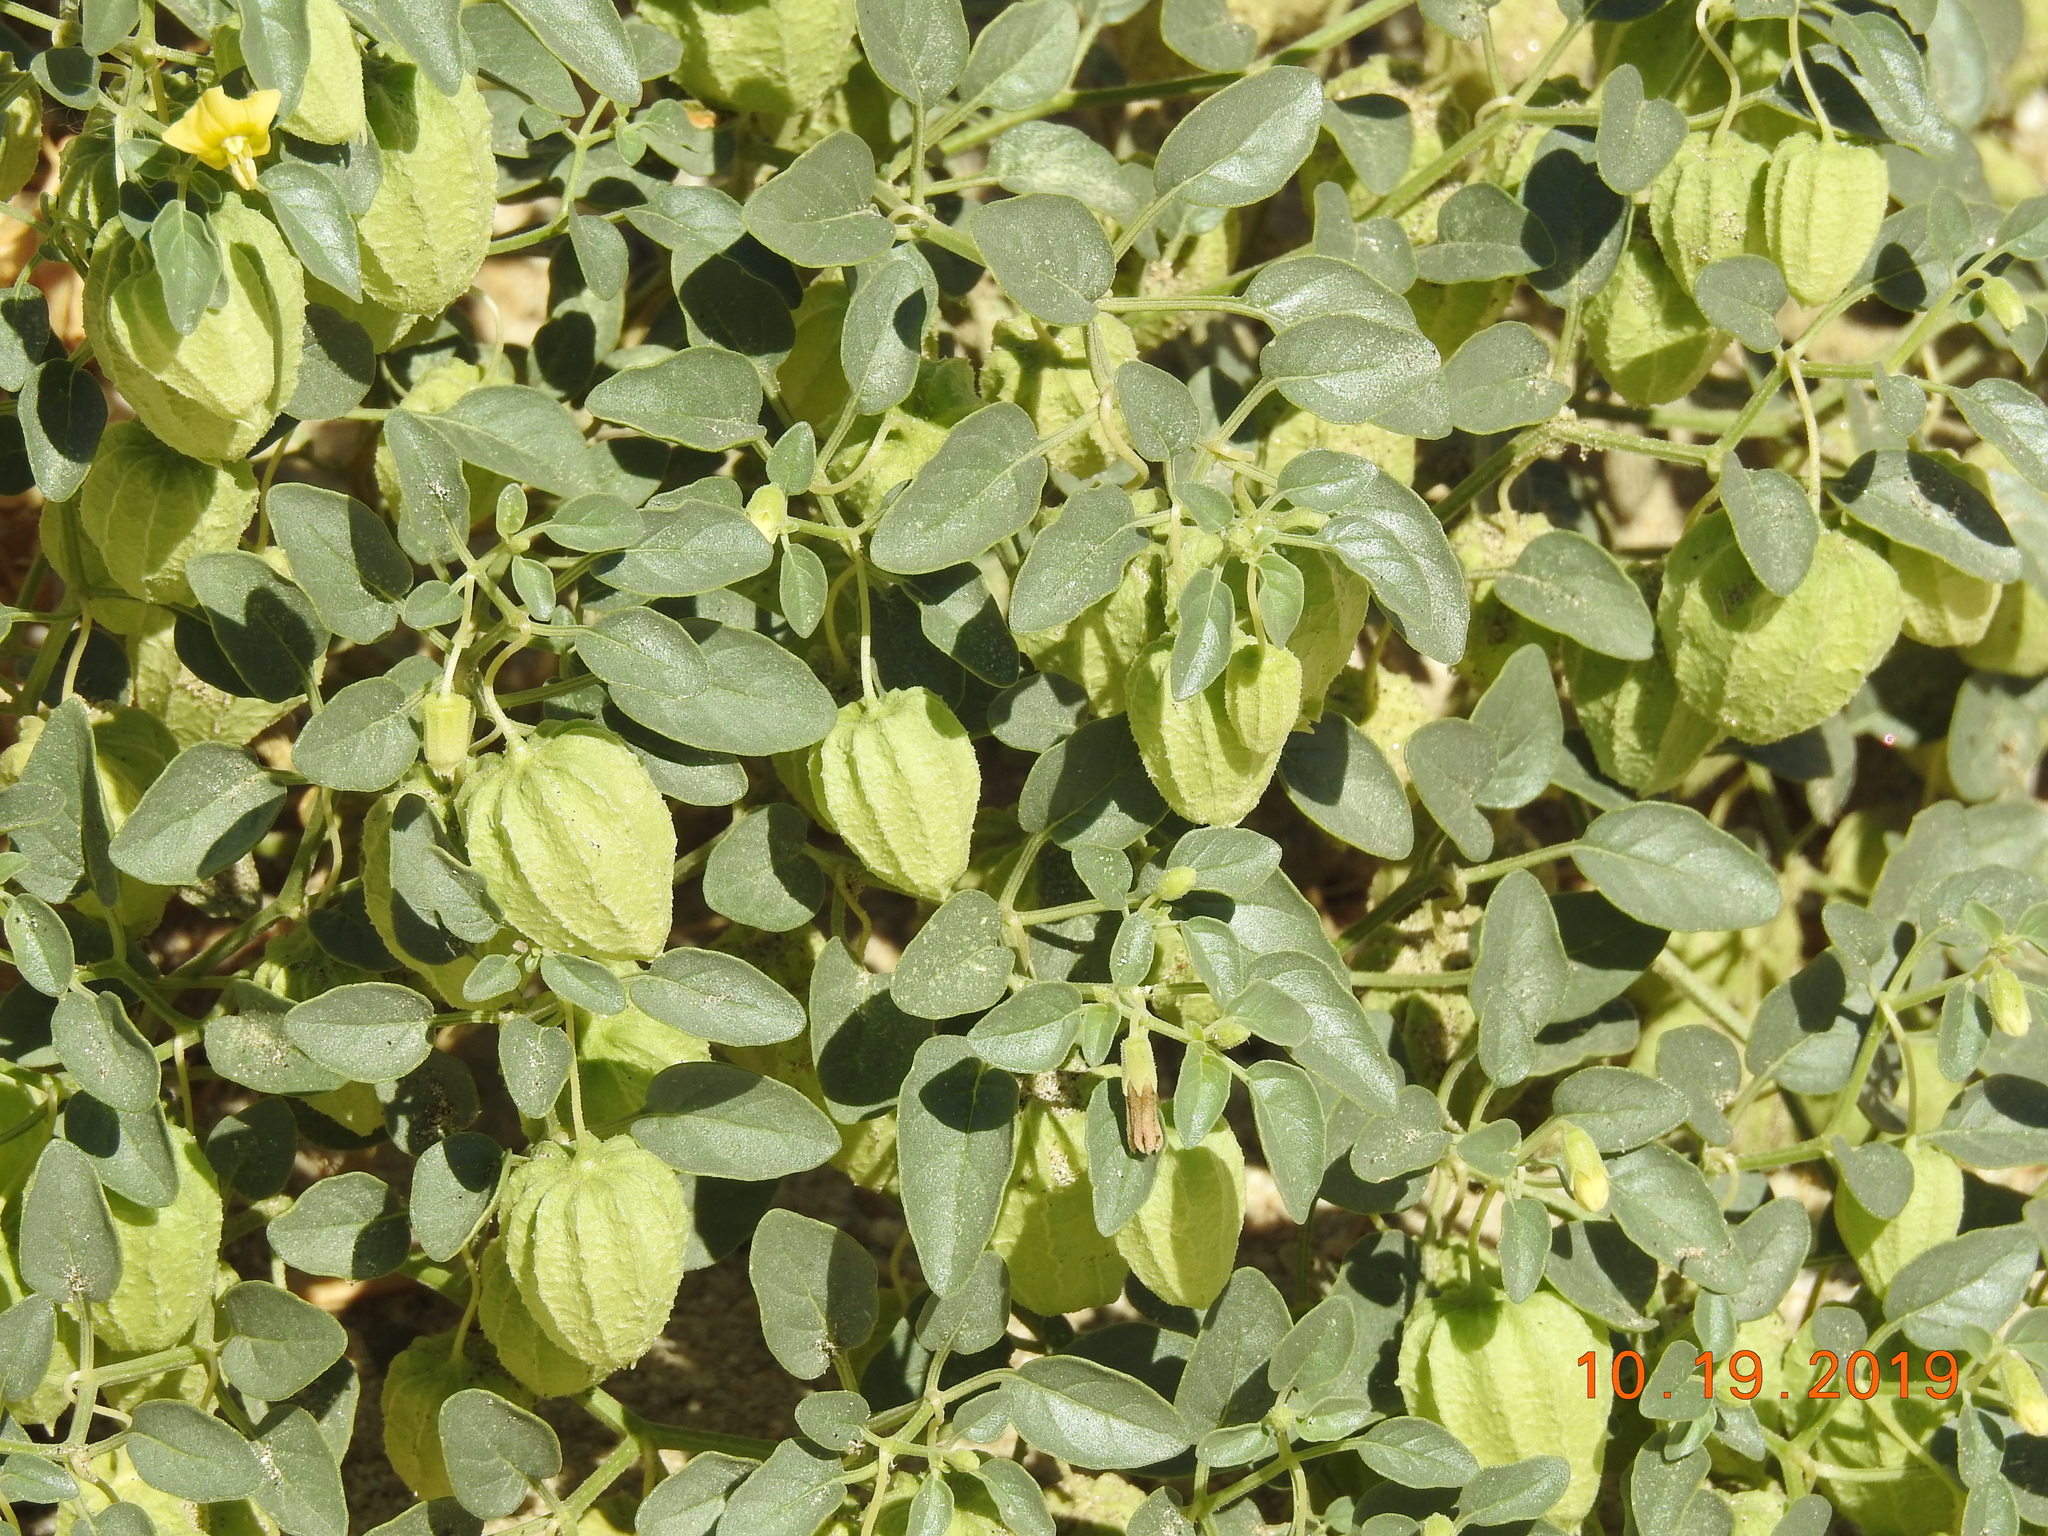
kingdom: Plantae
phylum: Tracheophyta
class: Magnoliopsida
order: Solanales
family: Solanaceae
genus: Physalis
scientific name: Physalis crassifolia
